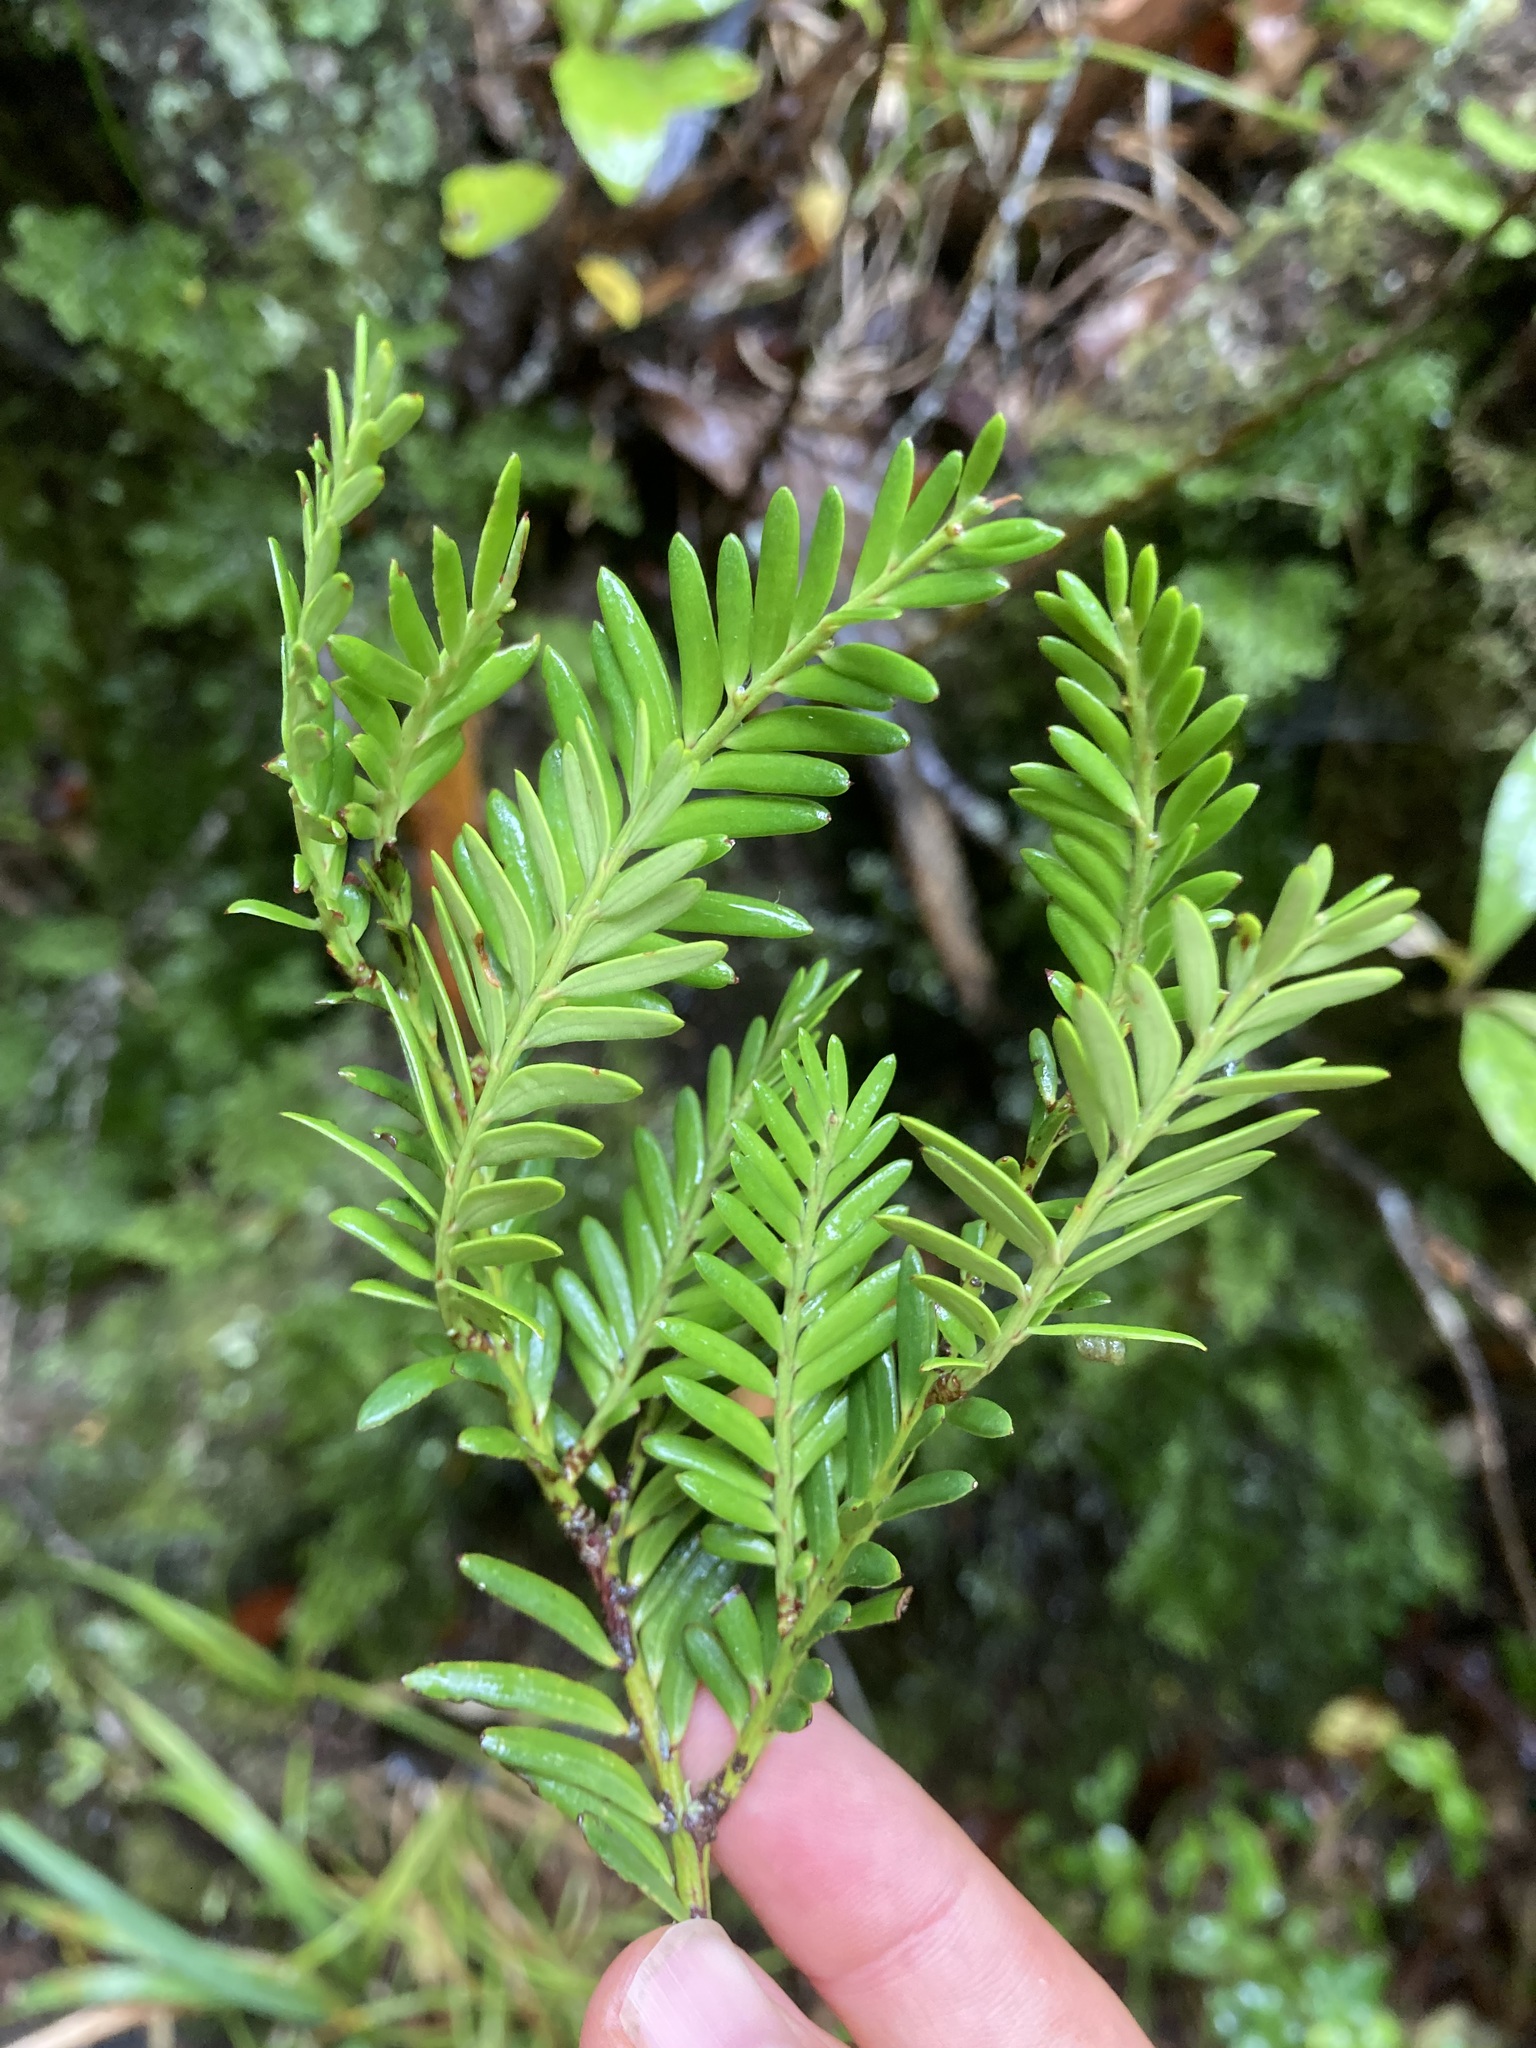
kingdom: Plantae
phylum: Tracheophyta
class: Pinopsida
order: Pinales
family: Podocarpaceae
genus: Prumnopitys
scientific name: Prumnopitys ferruginea
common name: Brown pine
